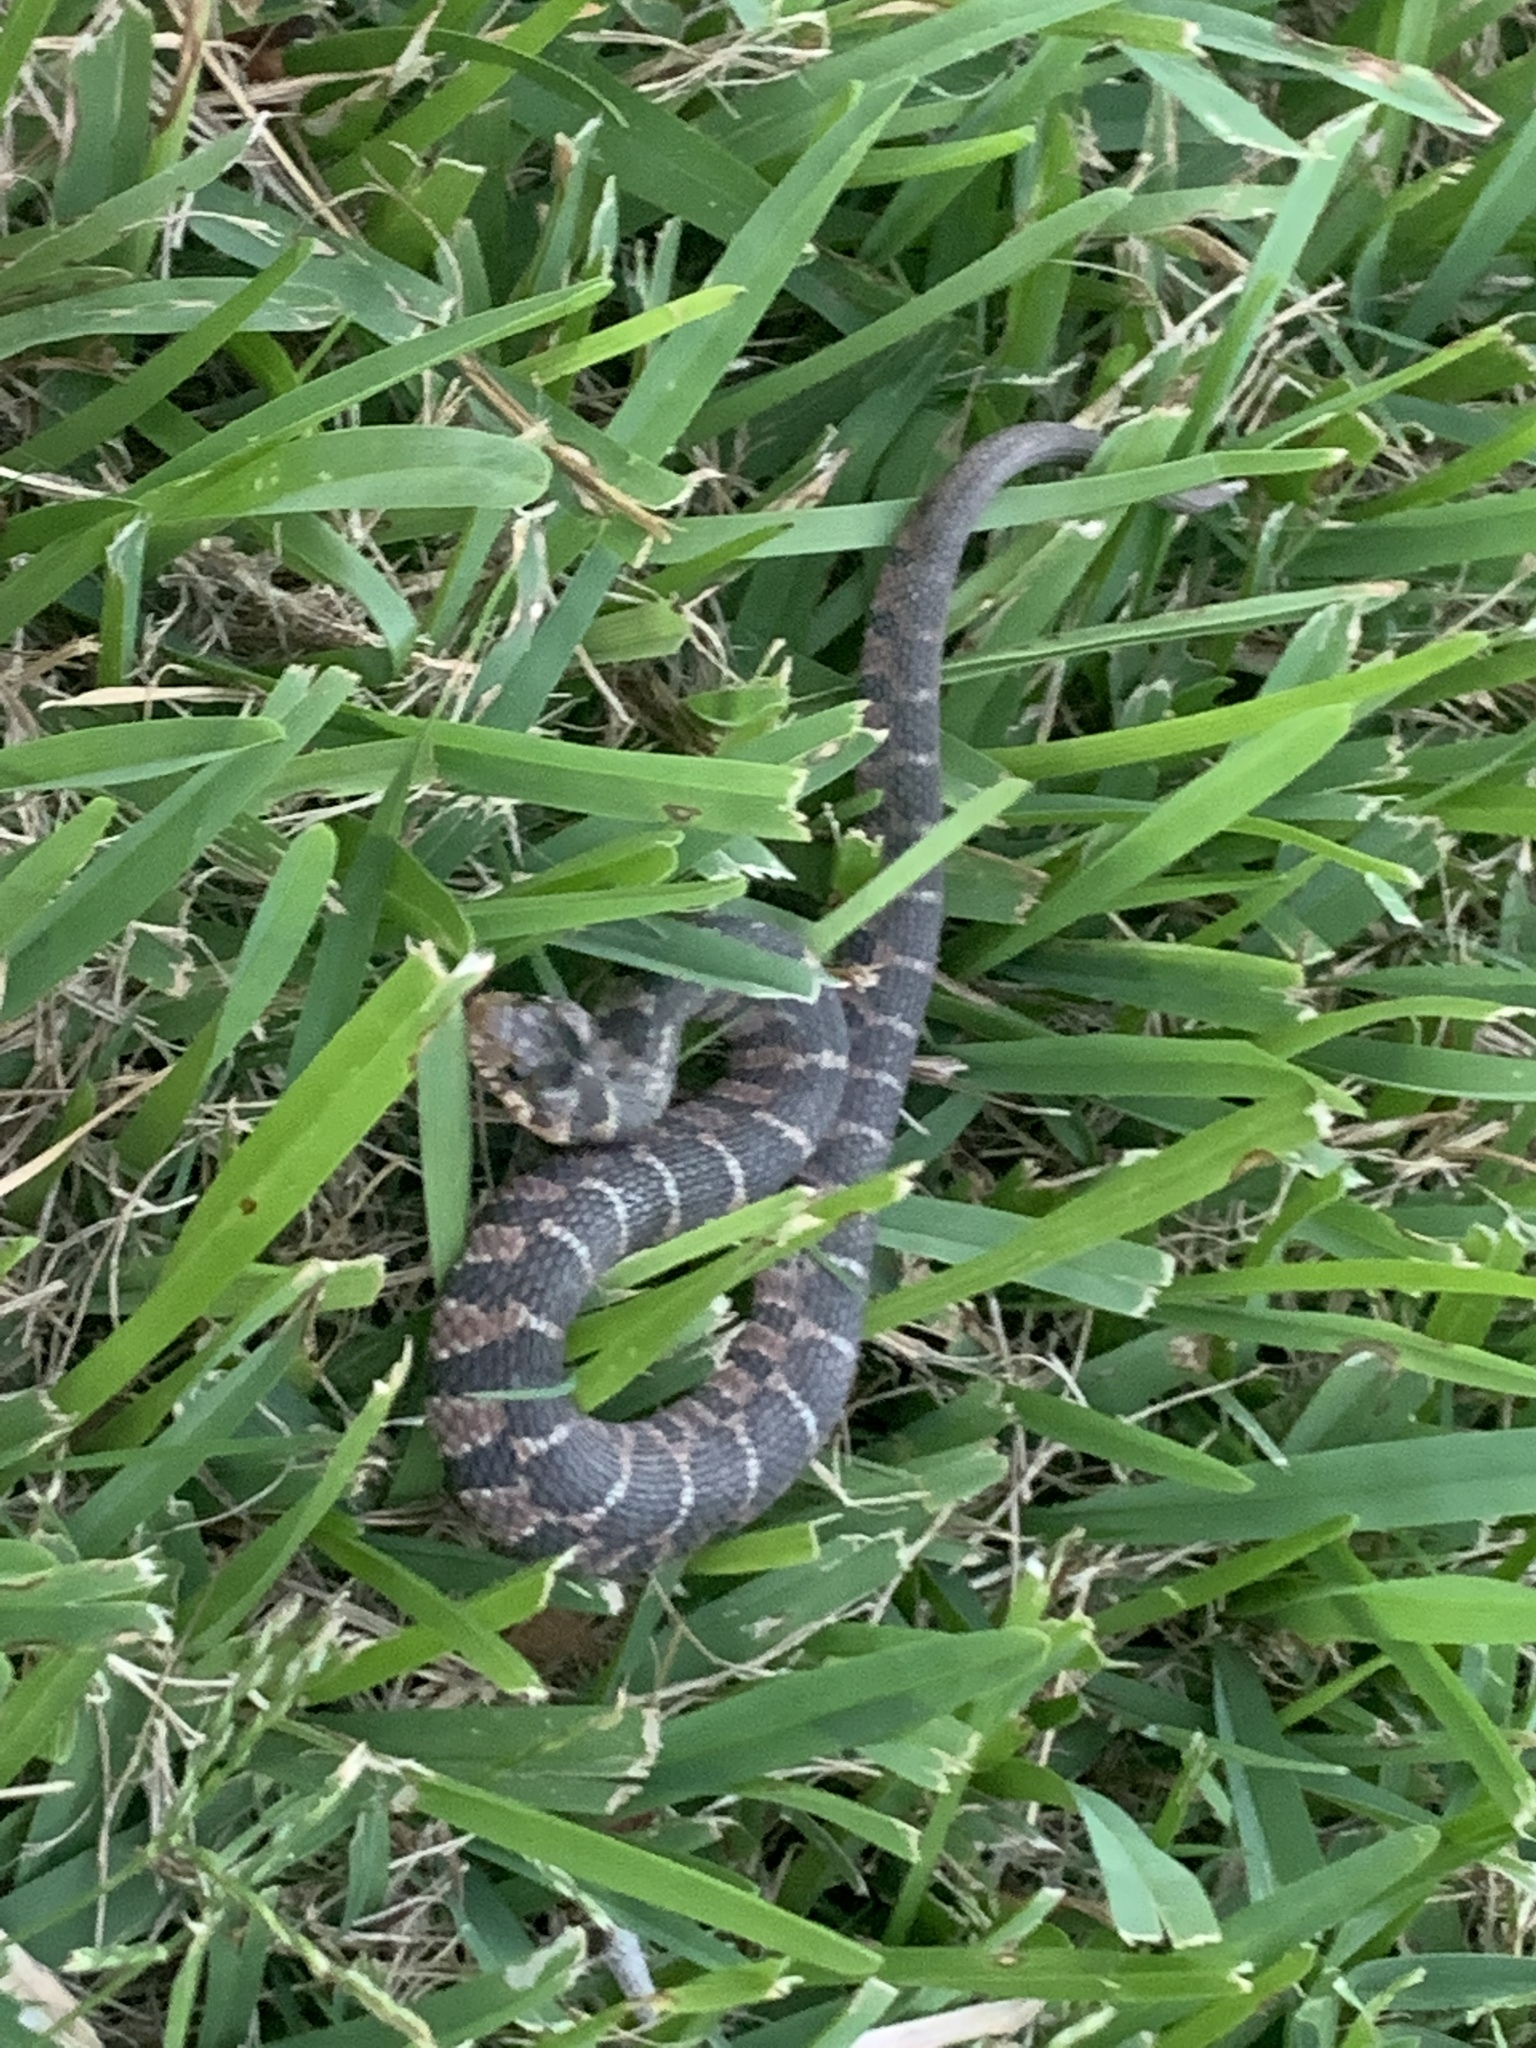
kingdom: Animalia
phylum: Chordata
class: Squamata
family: Colubridae
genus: Nerodia
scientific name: Nerodia erythrogaster
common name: Plainbelly water snake
